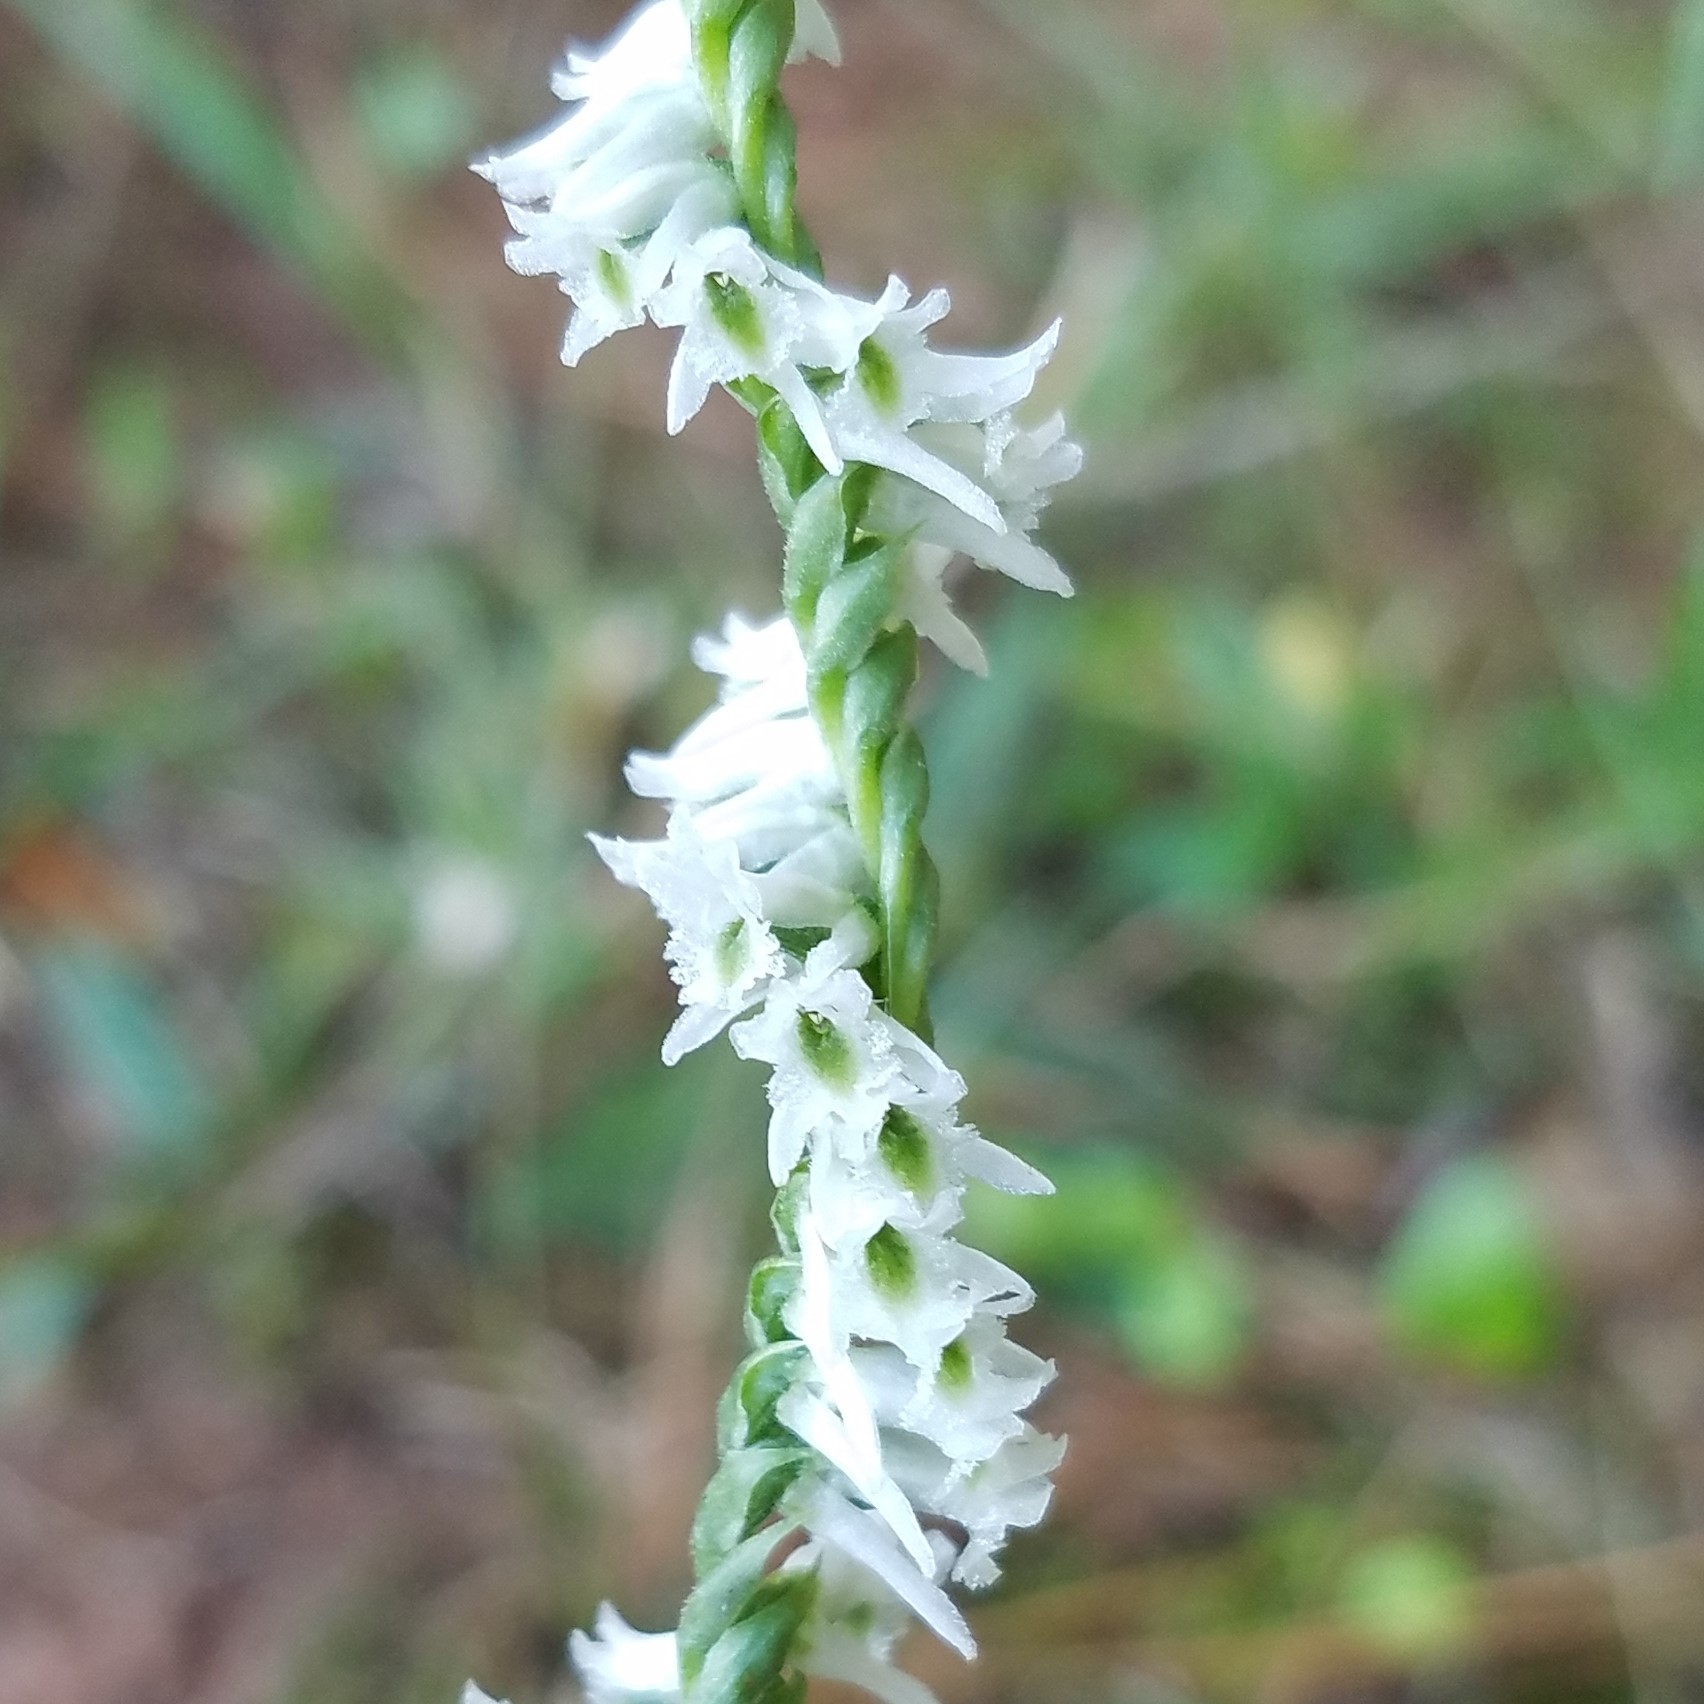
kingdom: Plantae
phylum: Tracheophyta
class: Liliopsida
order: Asparagales
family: Orchidaceae
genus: Spiranthes
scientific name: Spiranthes lacera
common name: Northern slender ladies'-tresses
